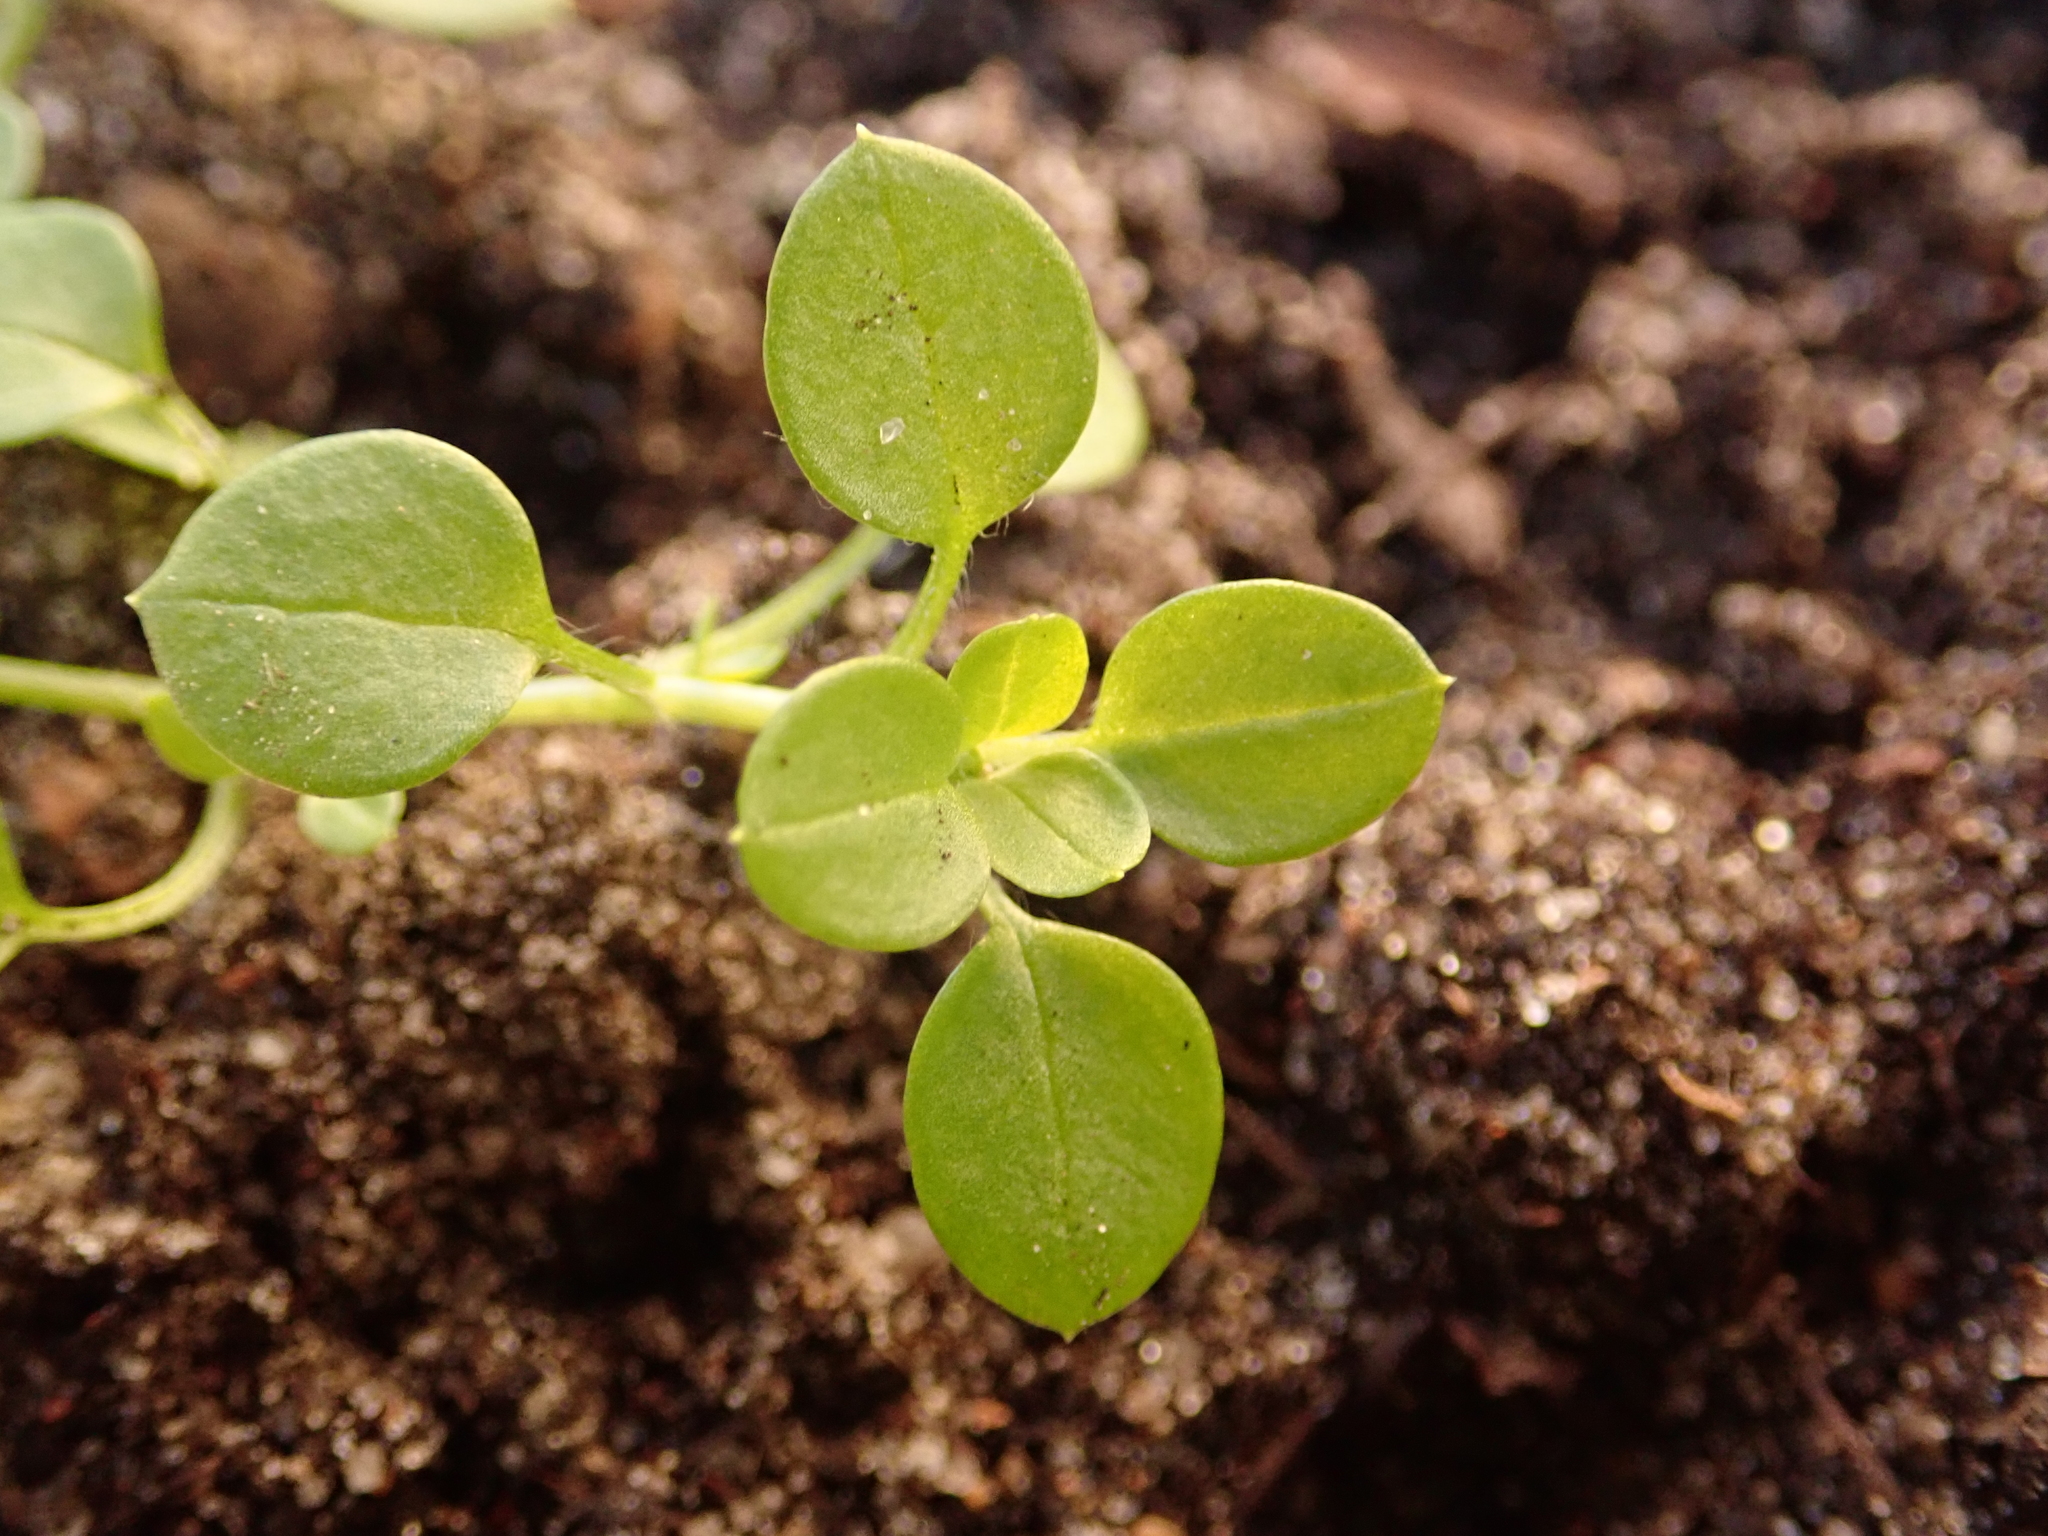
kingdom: Plantae
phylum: Tracheophyta
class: Magnoliopsida
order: Caryophyllales
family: Caryophyllaceae
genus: Stellaria
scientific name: Stellaria media
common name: Common chickweed
